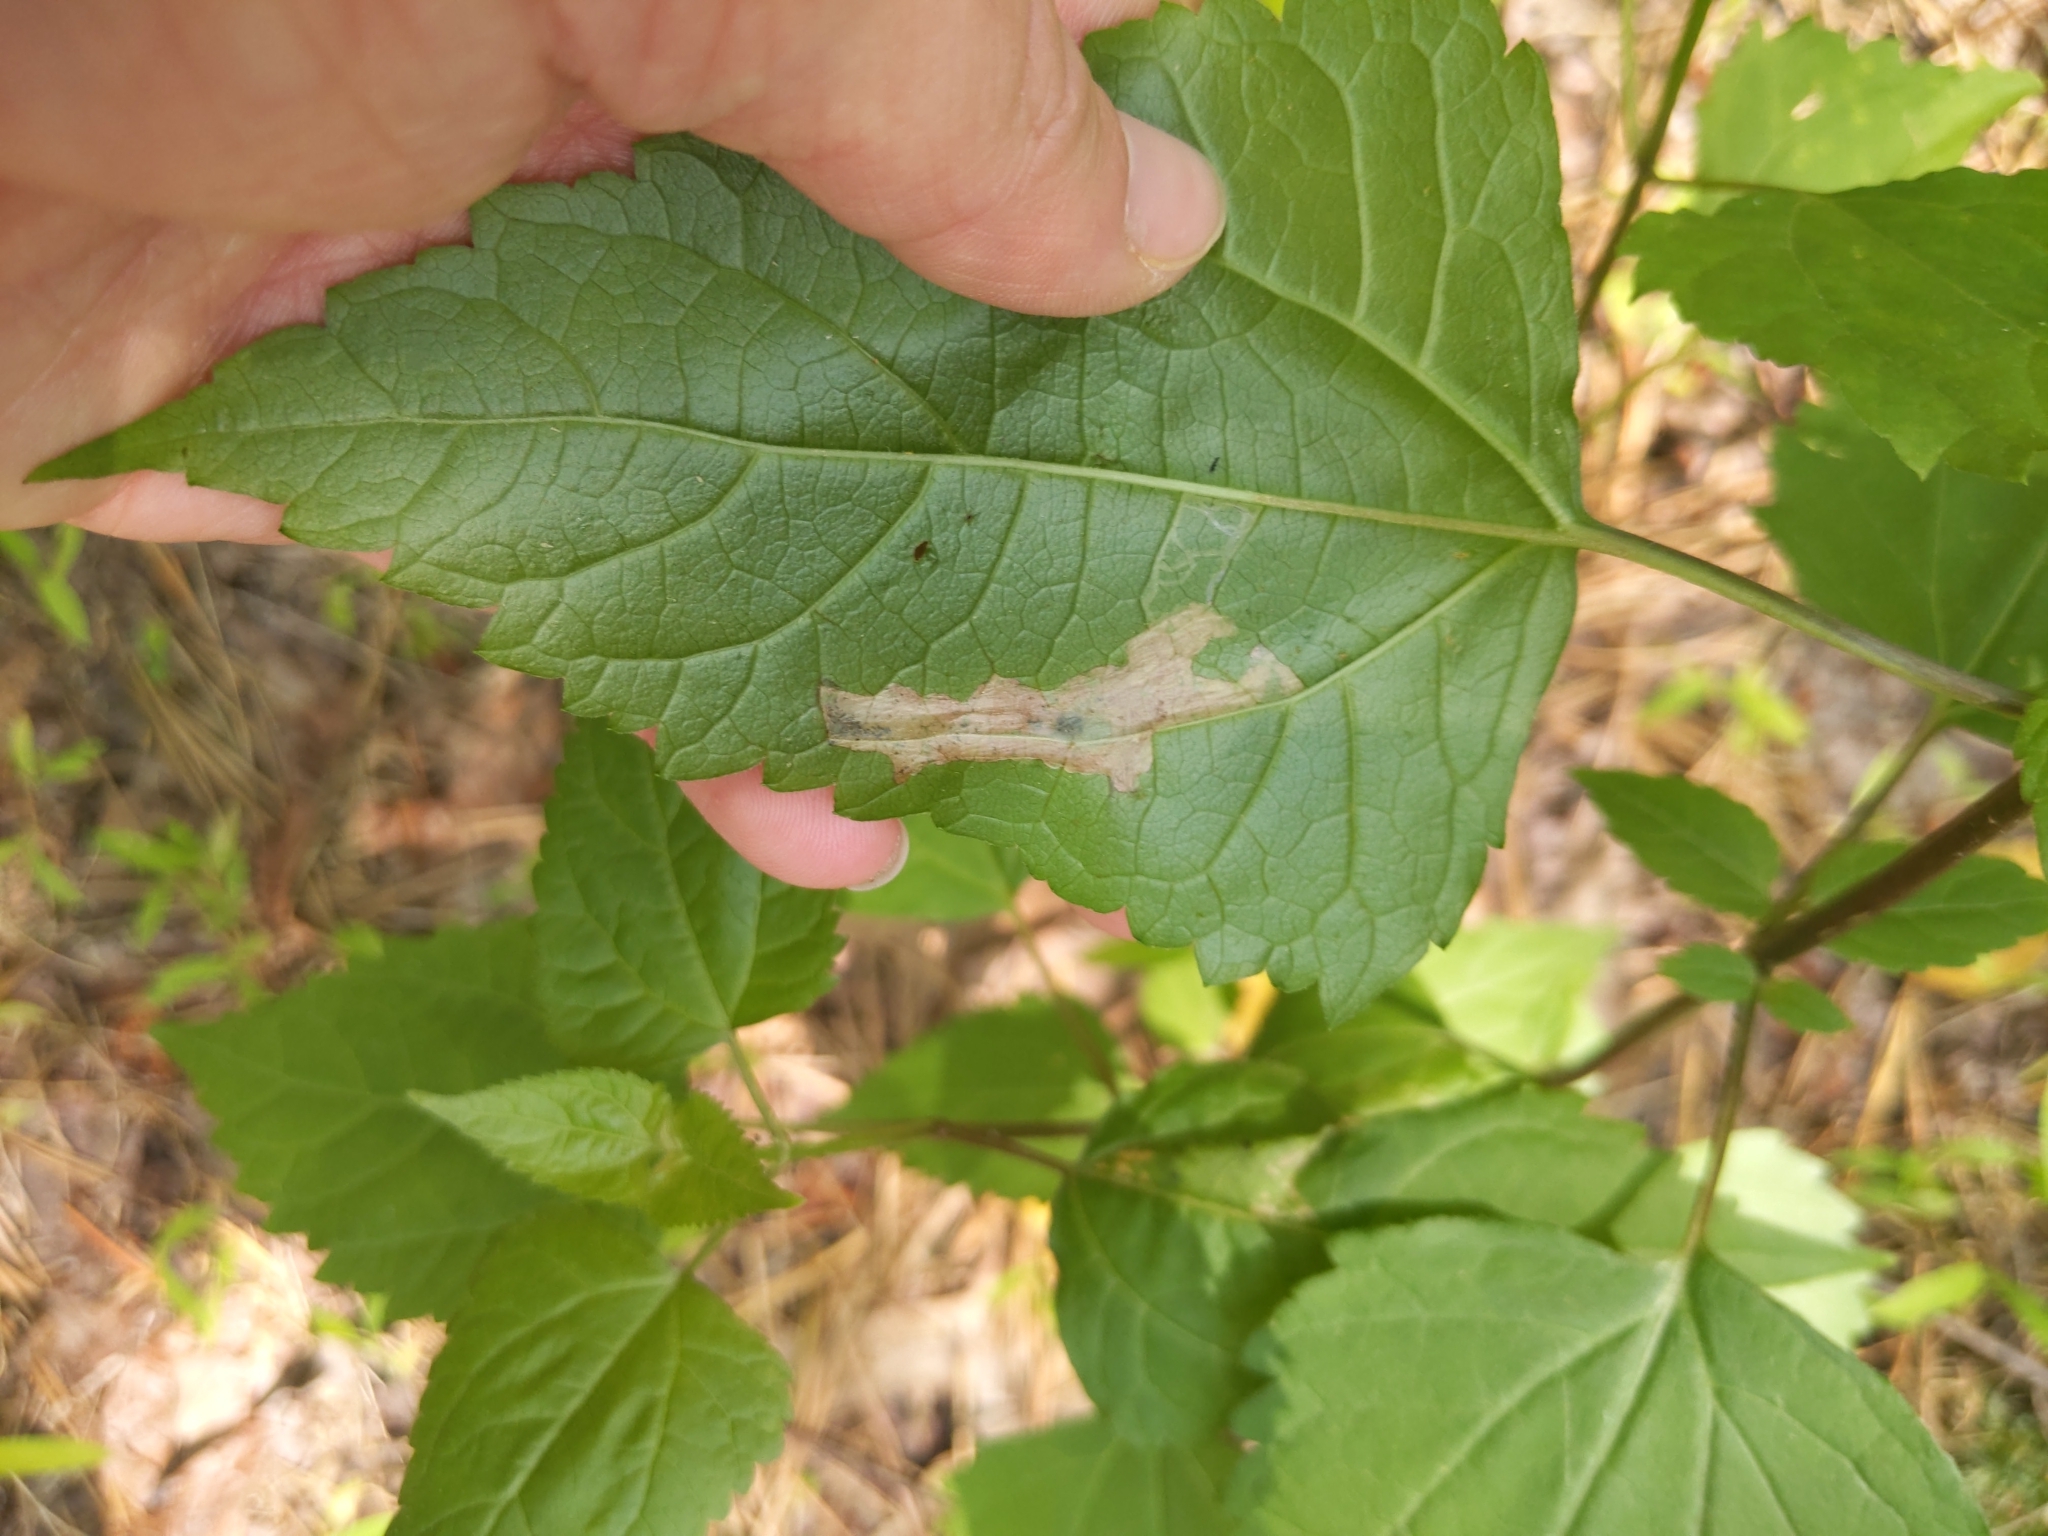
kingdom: Animalia
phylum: Arthropoda
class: Insecta
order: Lepidoptera
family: Gracillariidae
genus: Leucospilapteryx
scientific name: Leucospilapteryx venustella
